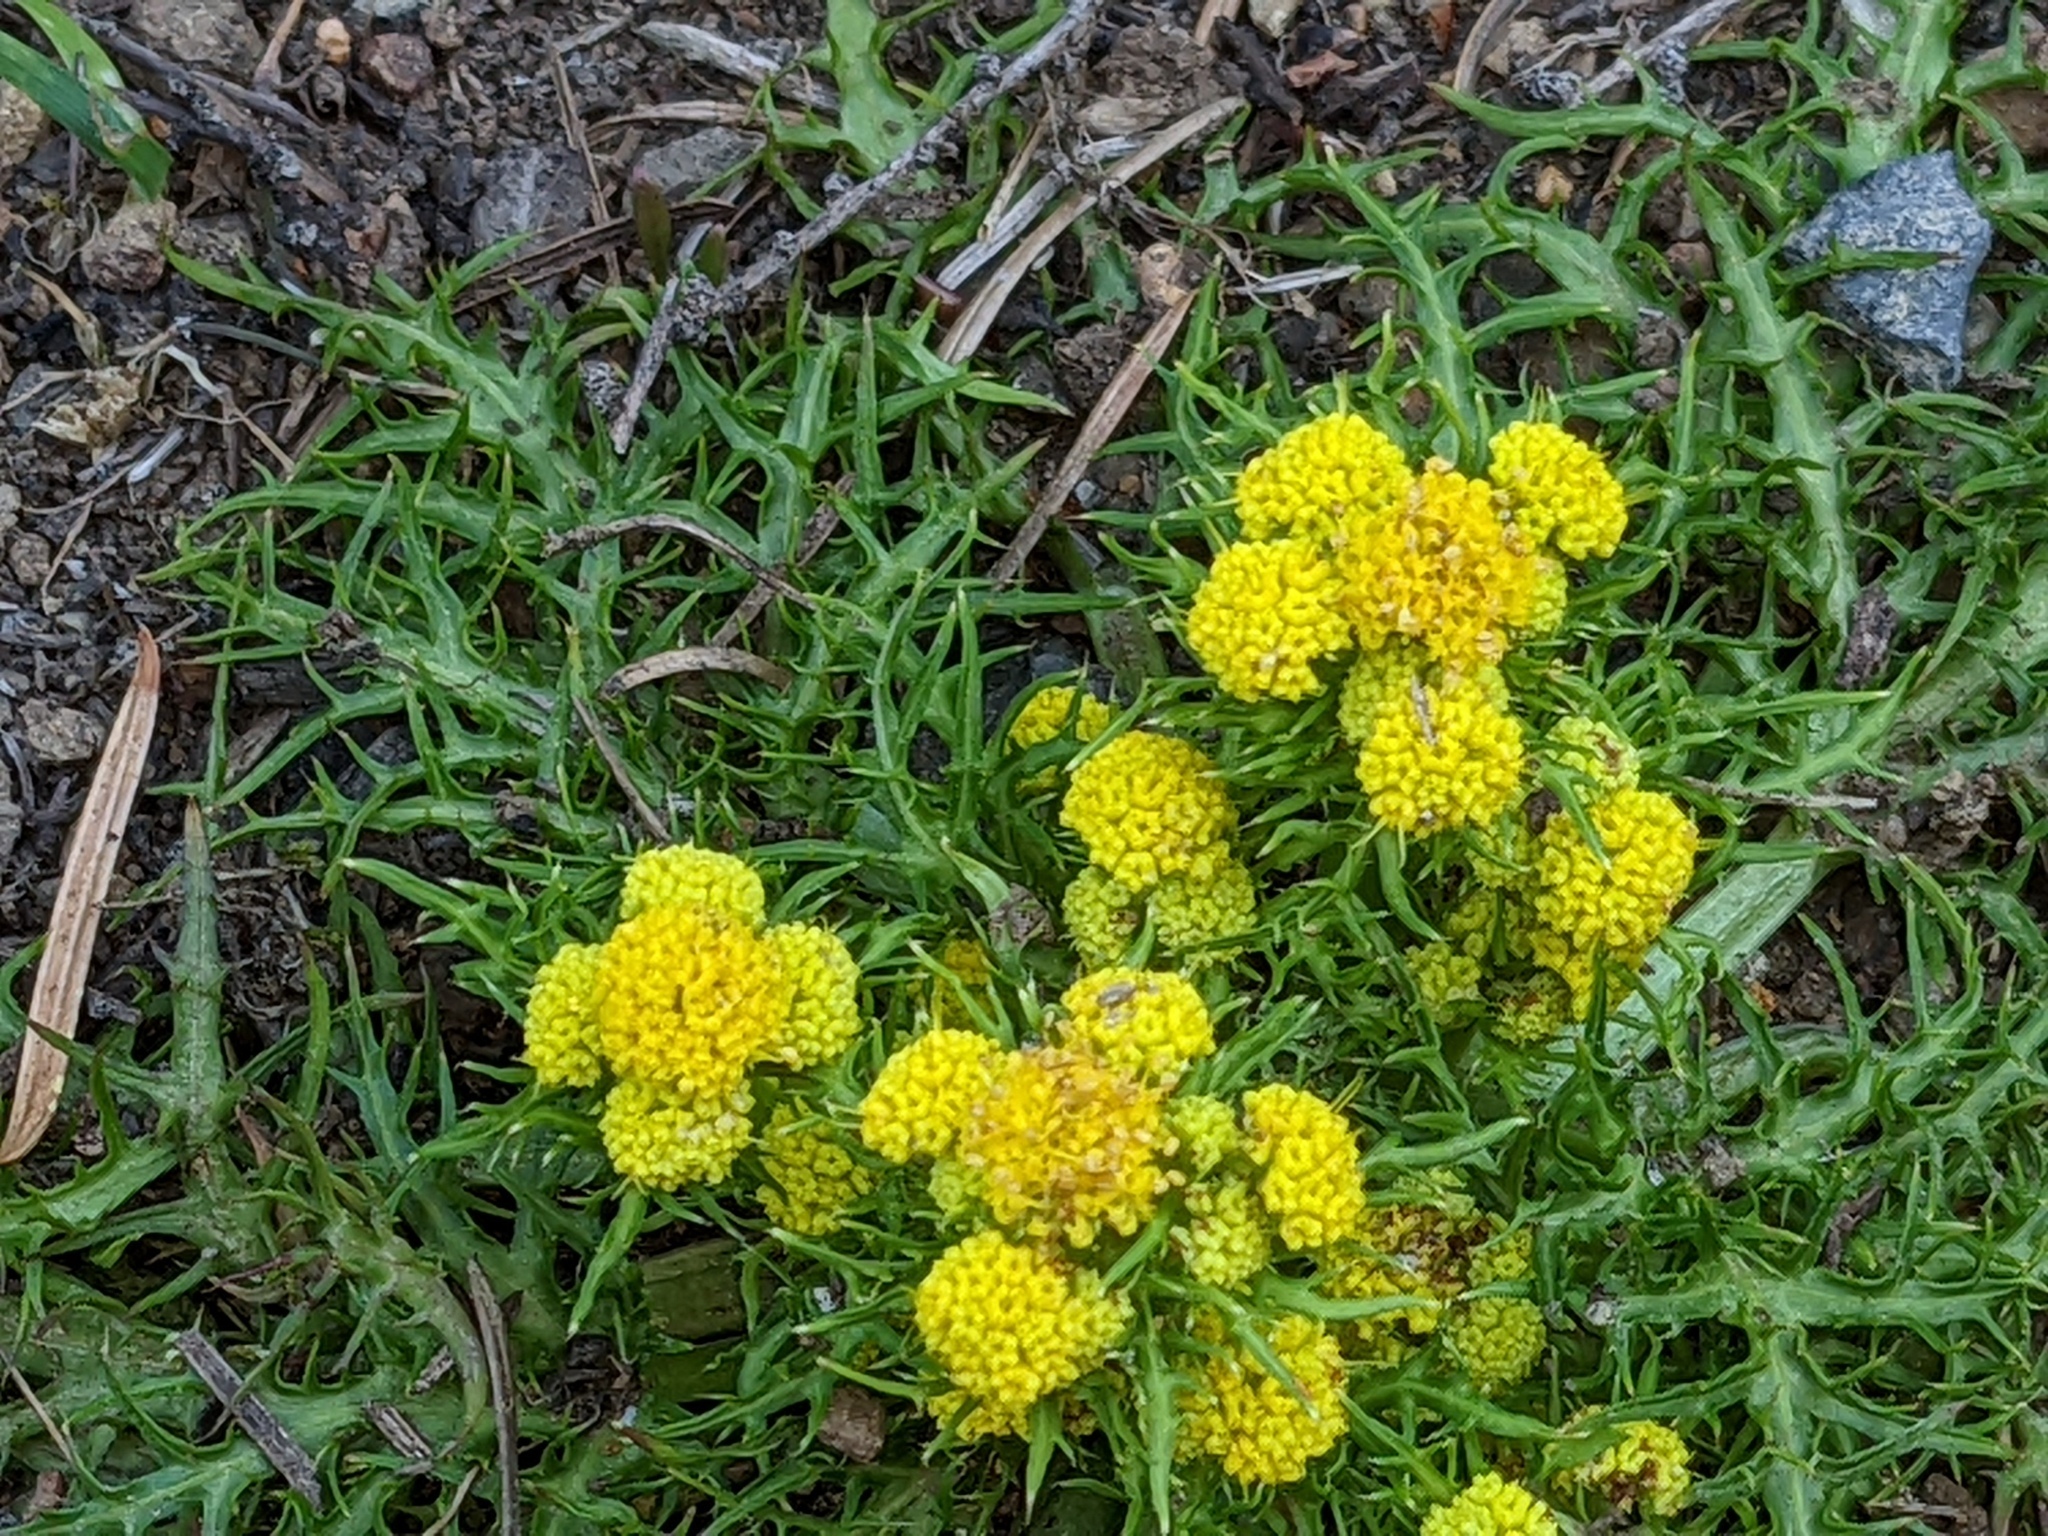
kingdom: Plantae
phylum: Tracheophyta
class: Magnoliopsida
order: Apiales
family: Apiaceae
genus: Sanicula
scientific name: Sanicula laciniata
